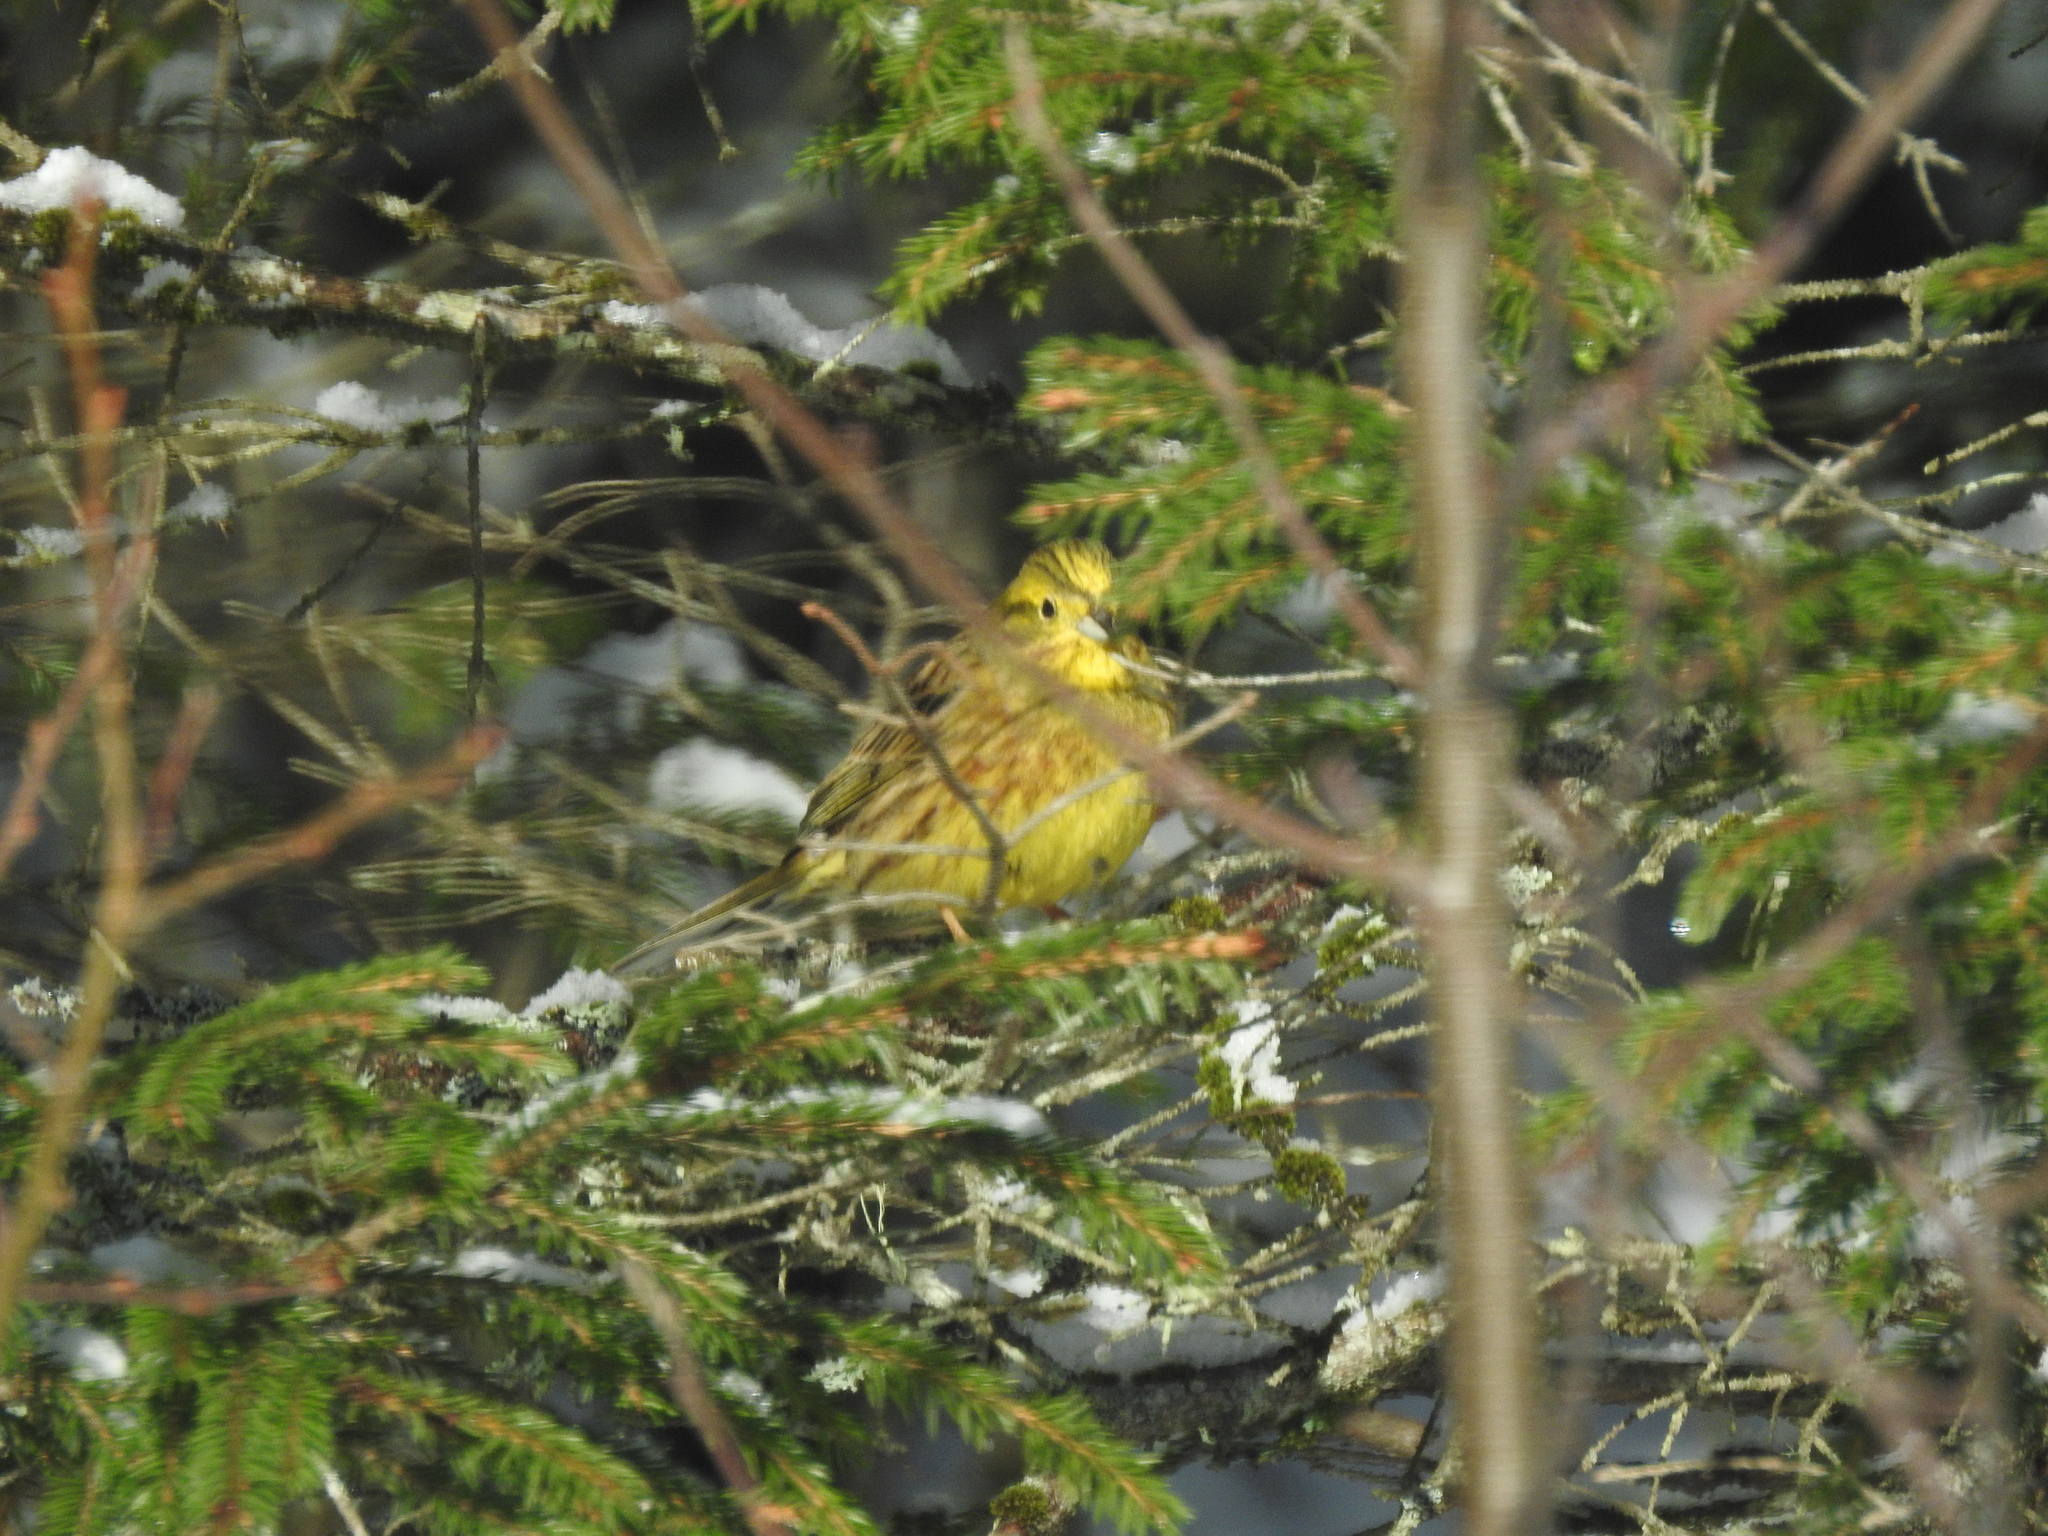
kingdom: Animalia
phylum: Chordata
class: Aves
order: Passeriformes
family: Emberizidae
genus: Emberiza
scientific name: Emberiza citrinella
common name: Yellowhammer
